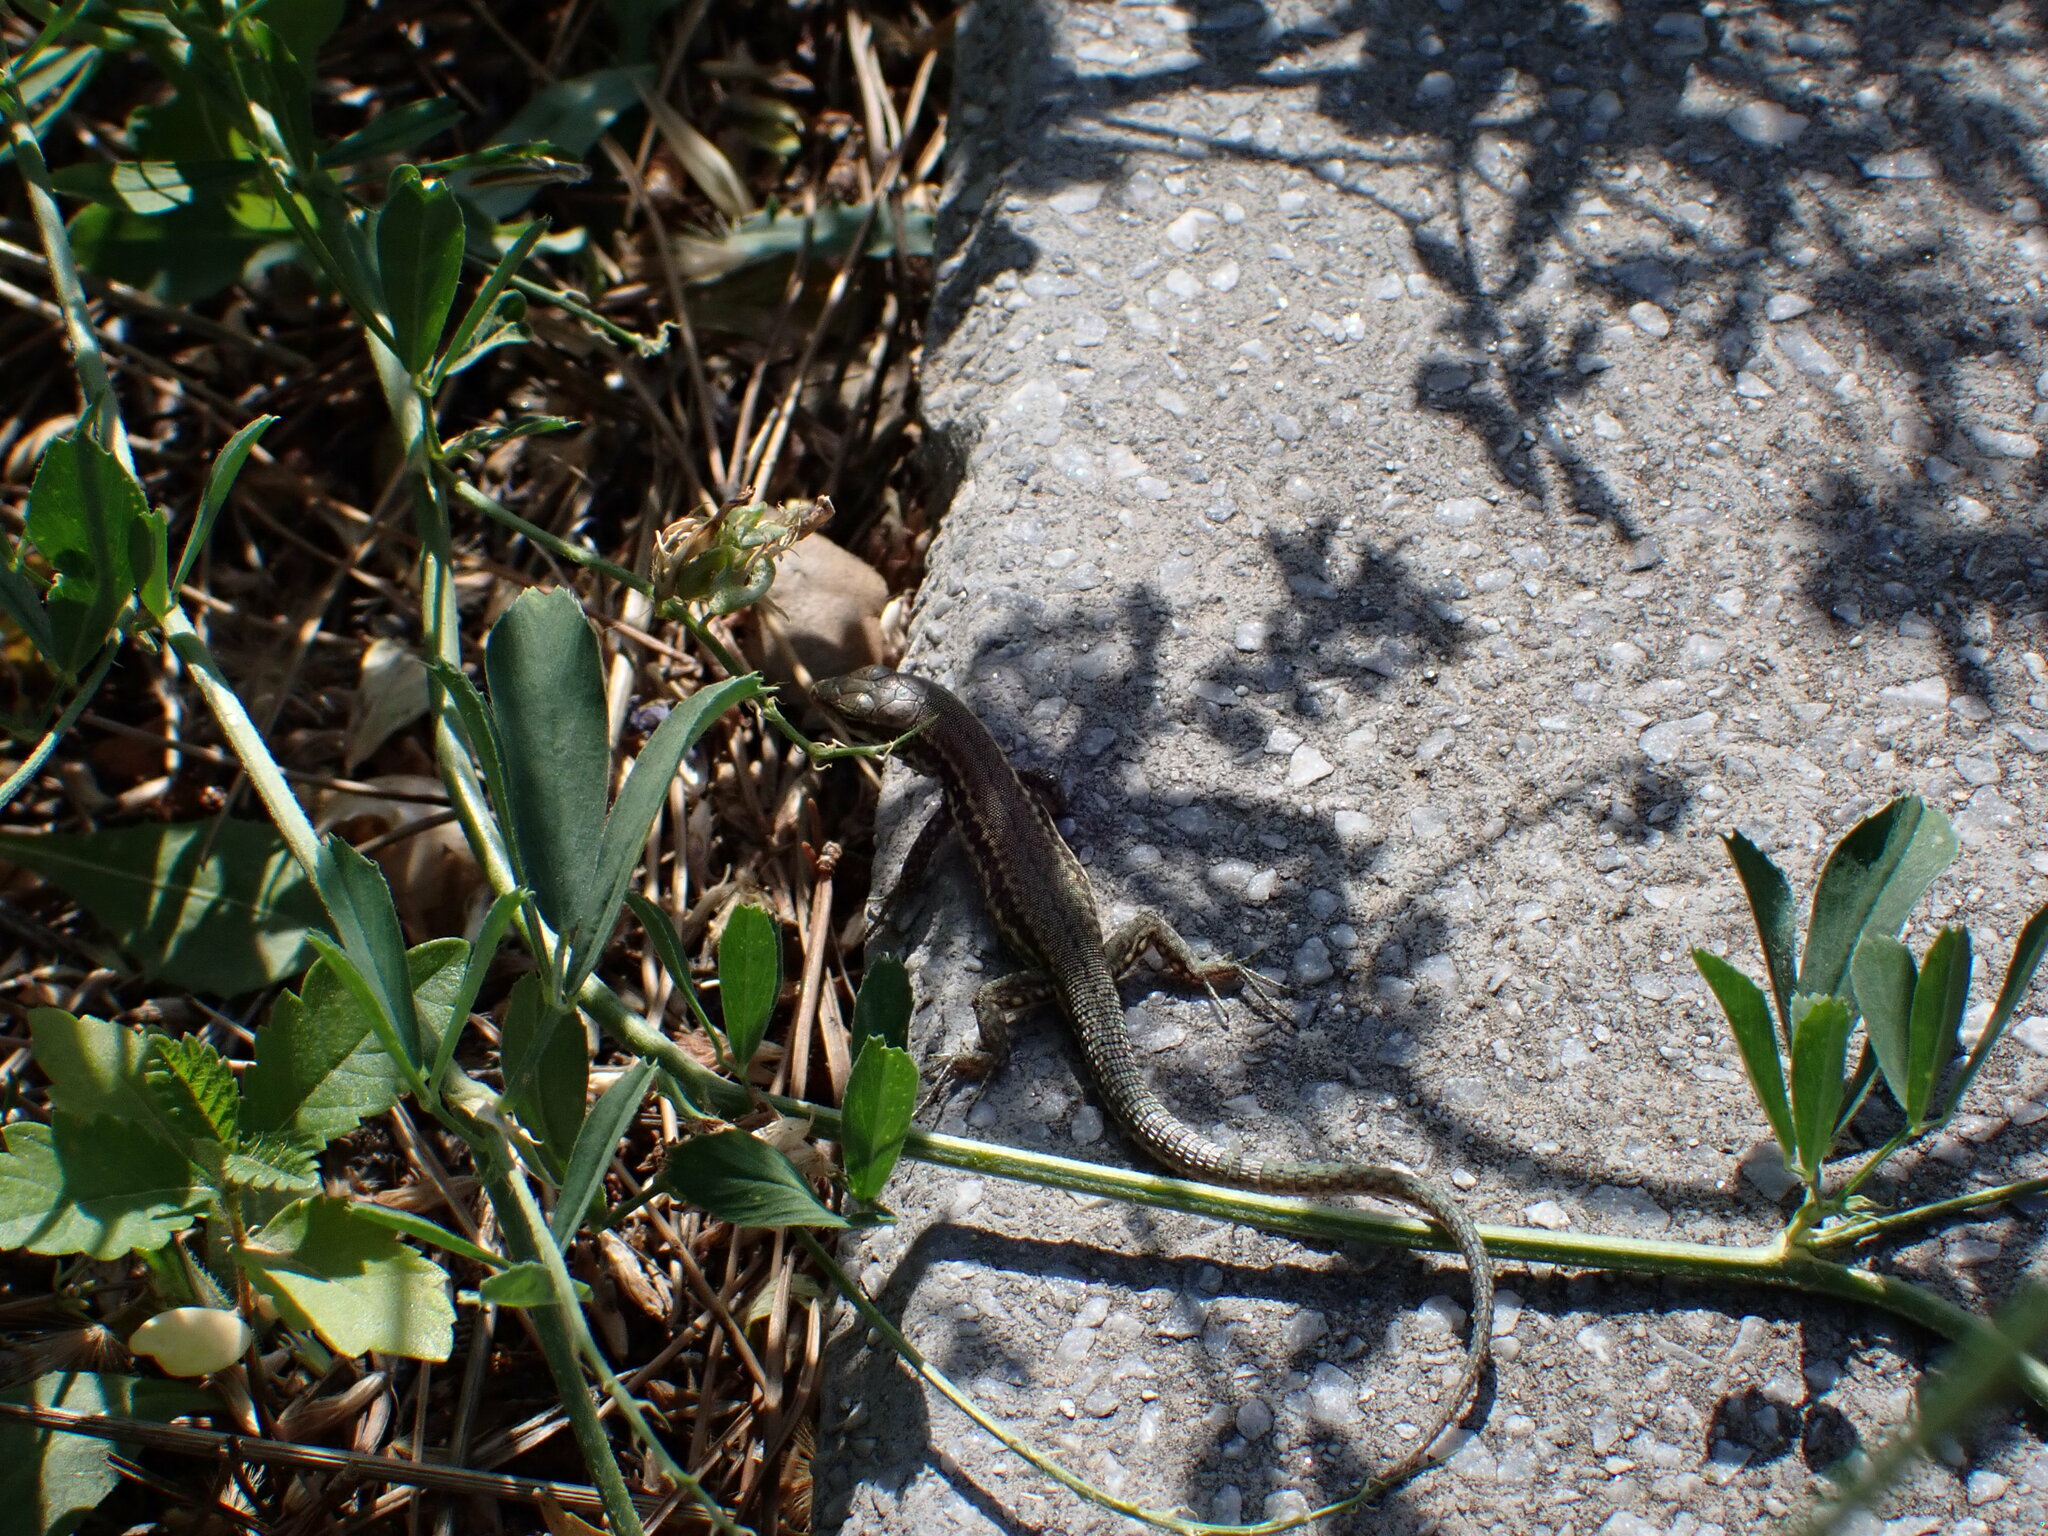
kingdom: Animalia
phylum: Chordata
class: Squamata
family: Lacertidae
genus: Podarcis
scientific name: Podarcis muralis
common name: Common wall lizard
